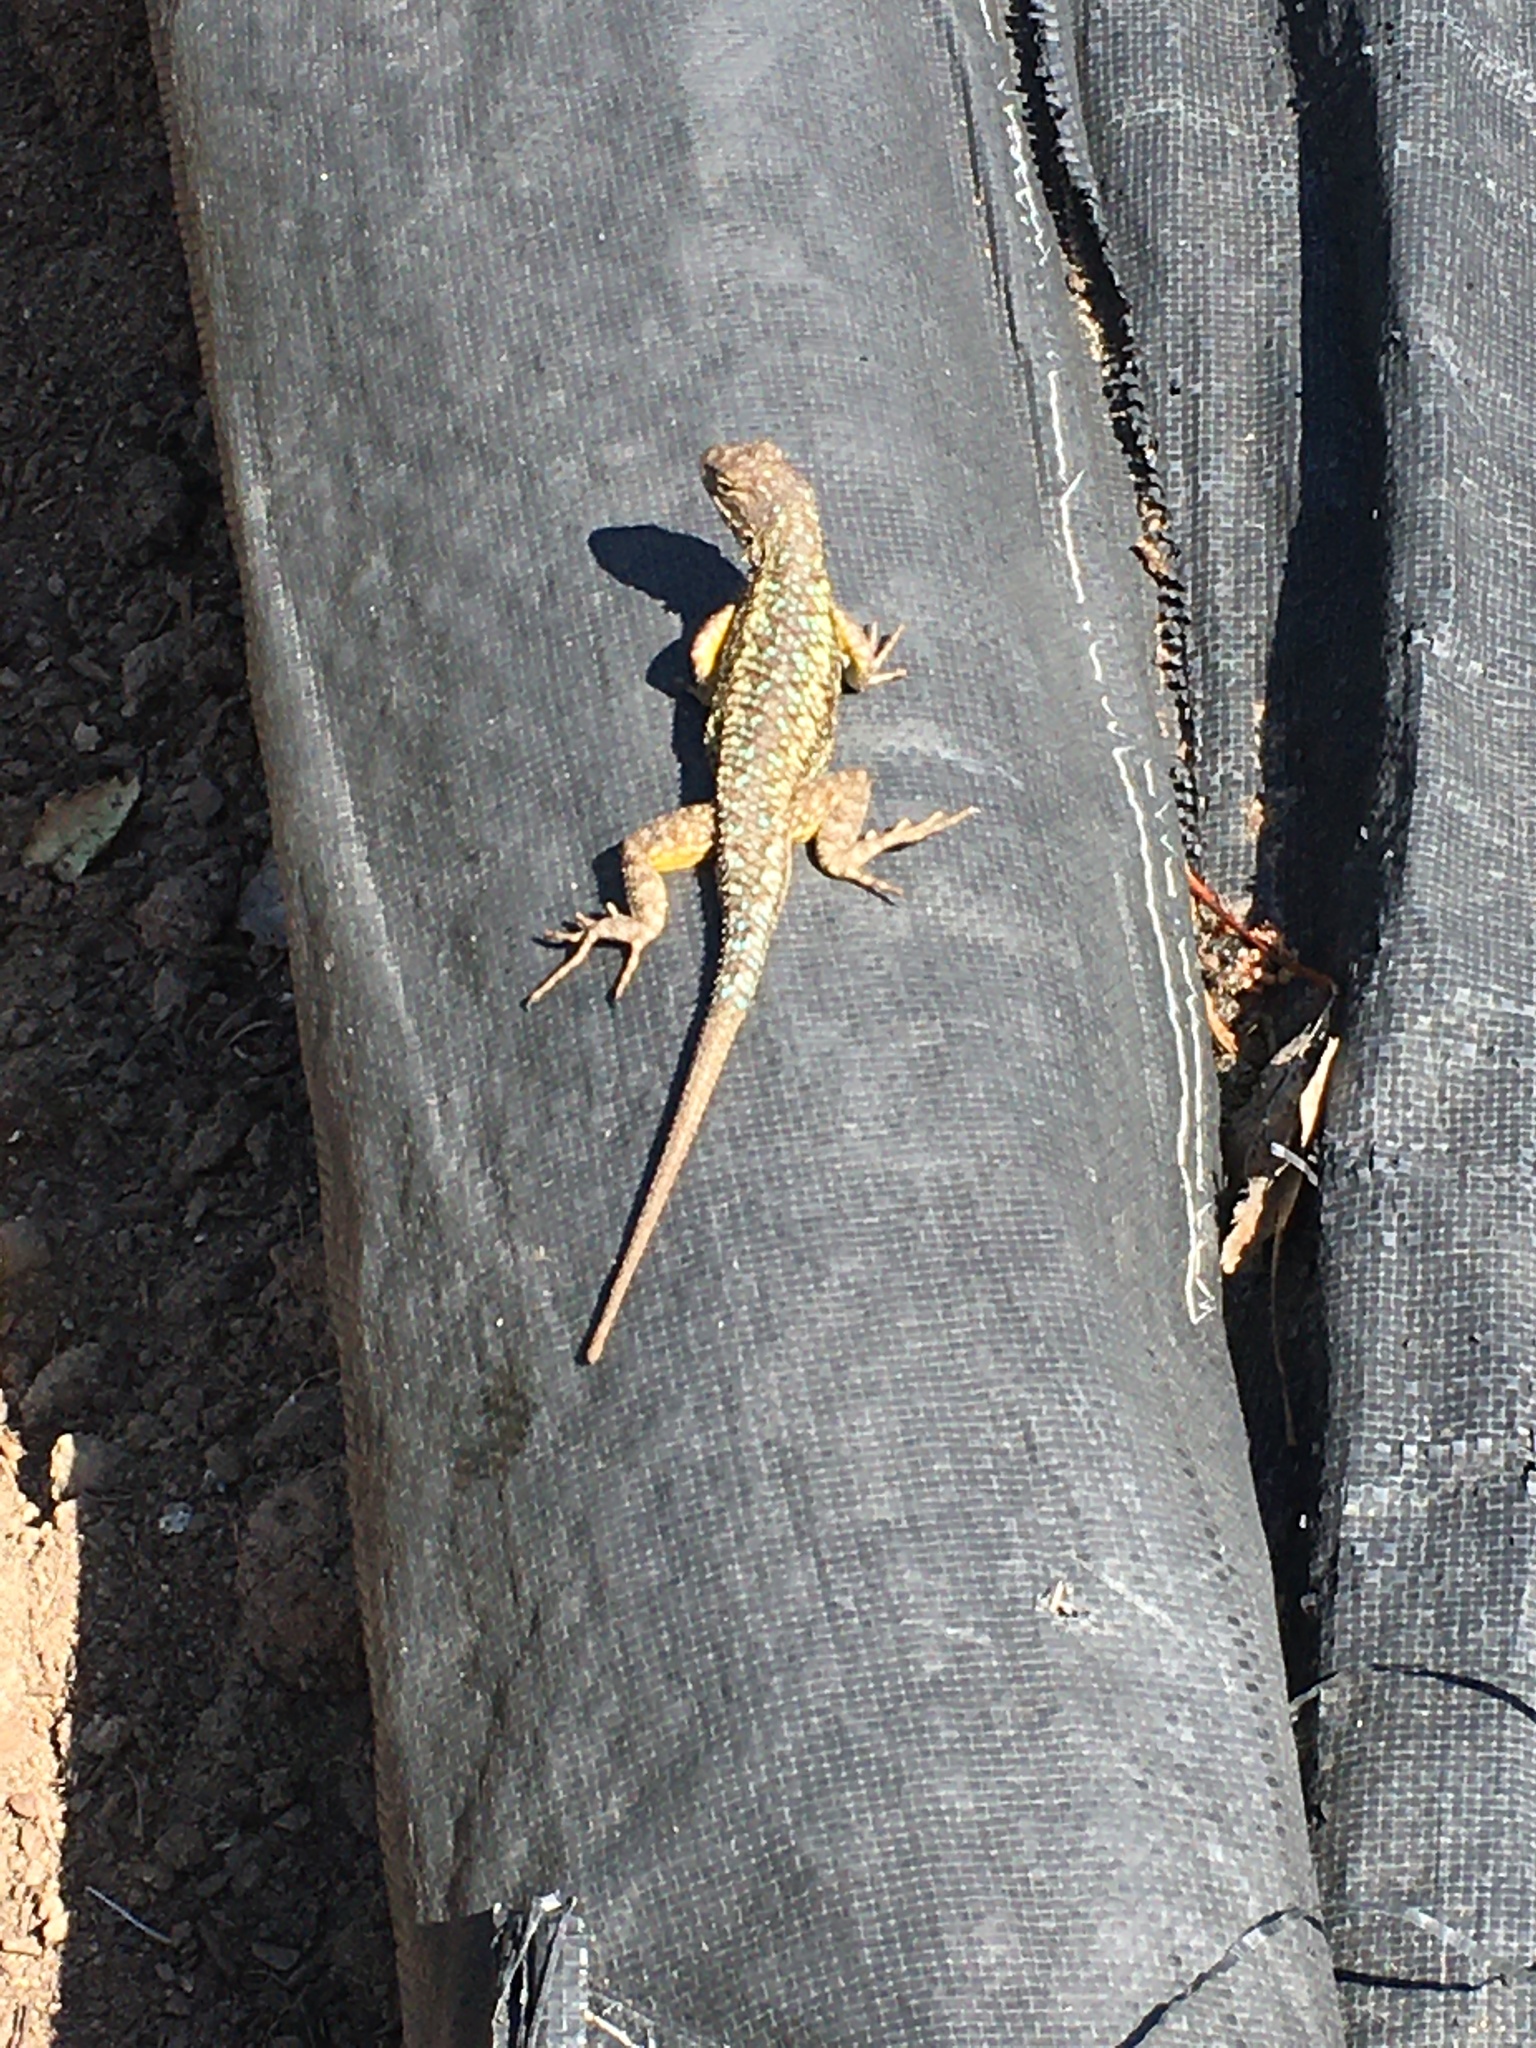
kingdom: Animalia
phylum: Chordata
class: Squamata
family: Phrynosomatidae
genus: Sceloporus
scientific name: Sceloporus occidentalis
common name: Western fence lizard
